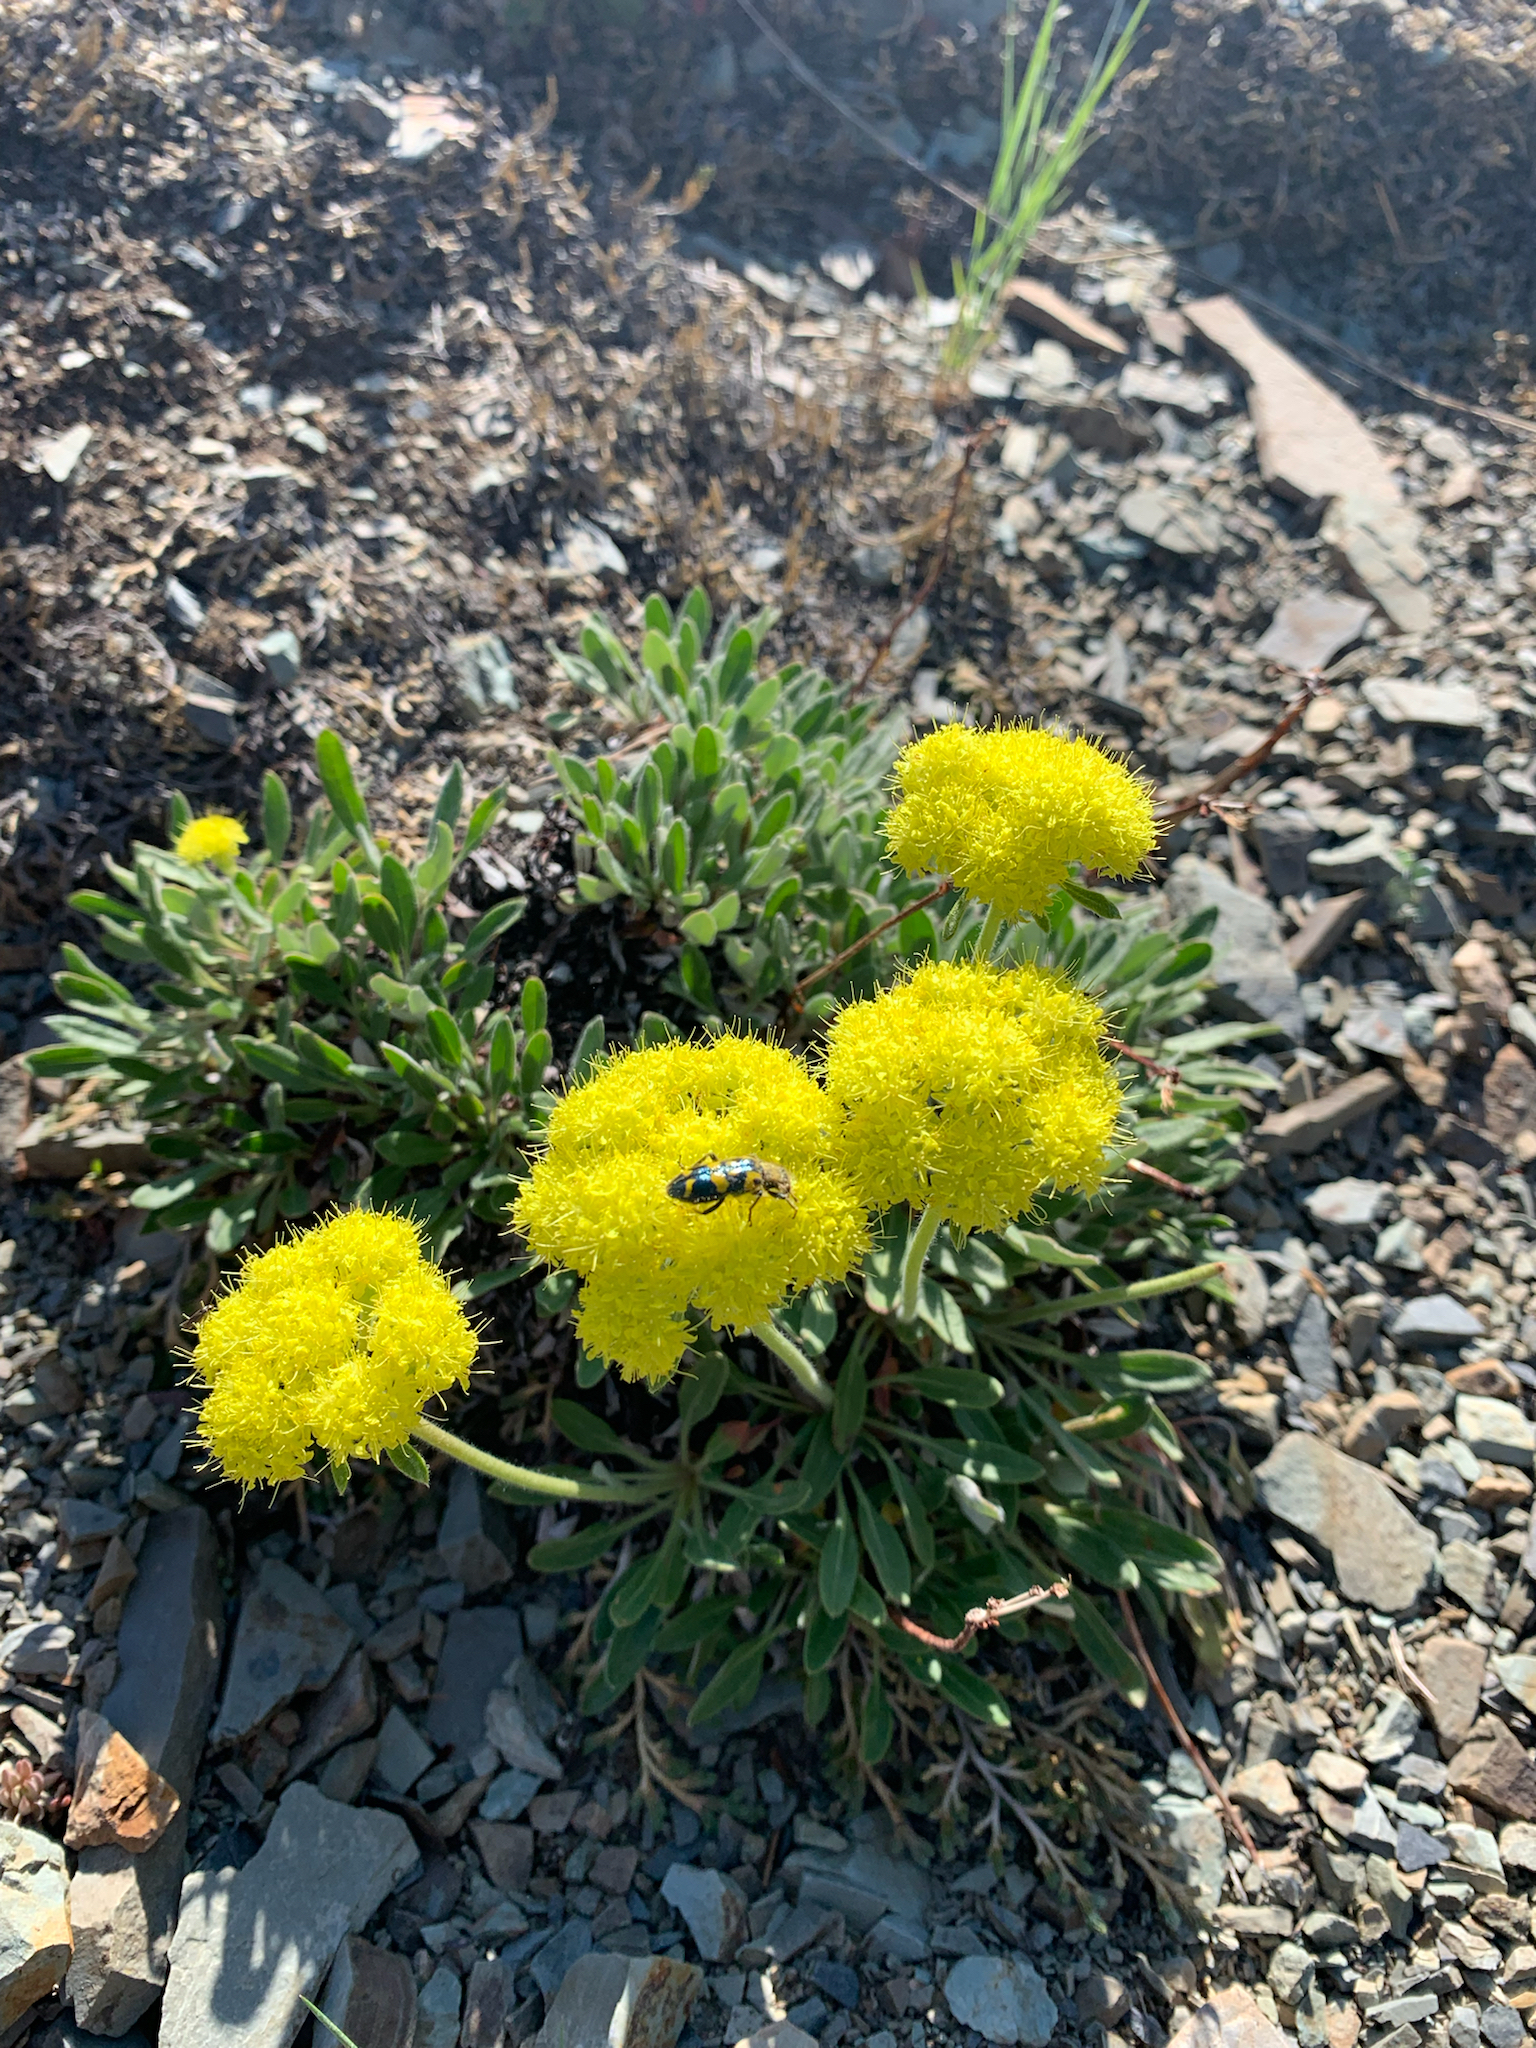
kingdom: Plantae
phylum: Tracheophyta
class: Magnoliopsida
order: Caryophyllales
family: Polygonaceae
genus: Eriogonum
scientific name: Eriogonum flavum
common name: Alpine golden wild buckwheat
